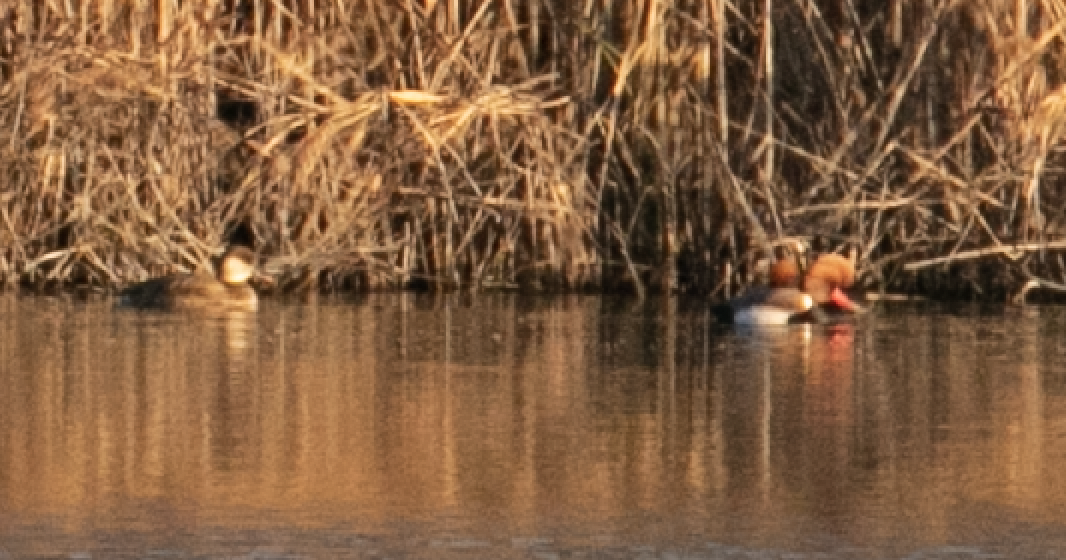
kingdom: Animalia
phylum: Chordata
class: Aves
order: Anseriformes
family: Anatidae
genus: Netta
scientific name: Netta rufina
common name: Red-crested pochard
